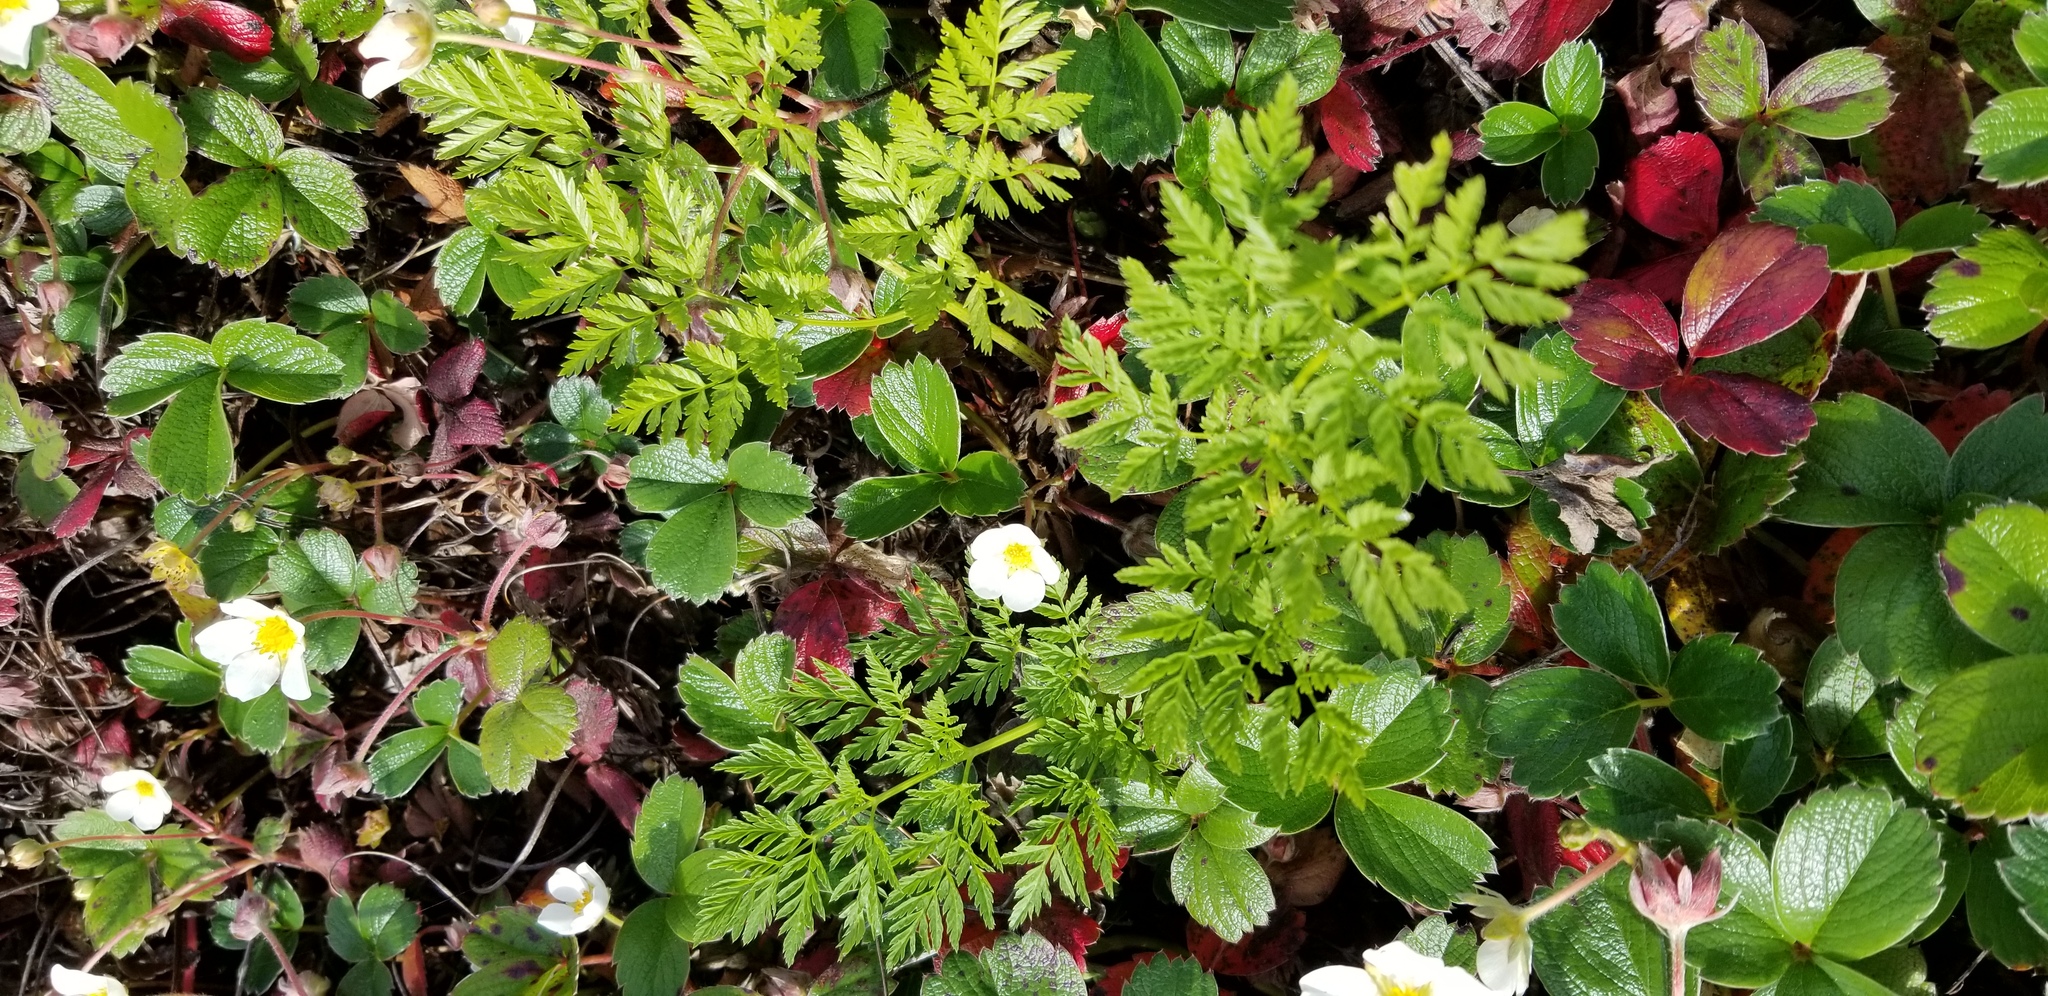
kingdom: Plantae
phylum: Tracheophyta
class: Magnoliopsida
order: Apiales
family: Apiaceae
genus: Conium
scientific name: Conium maculatum
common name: Hemlock
